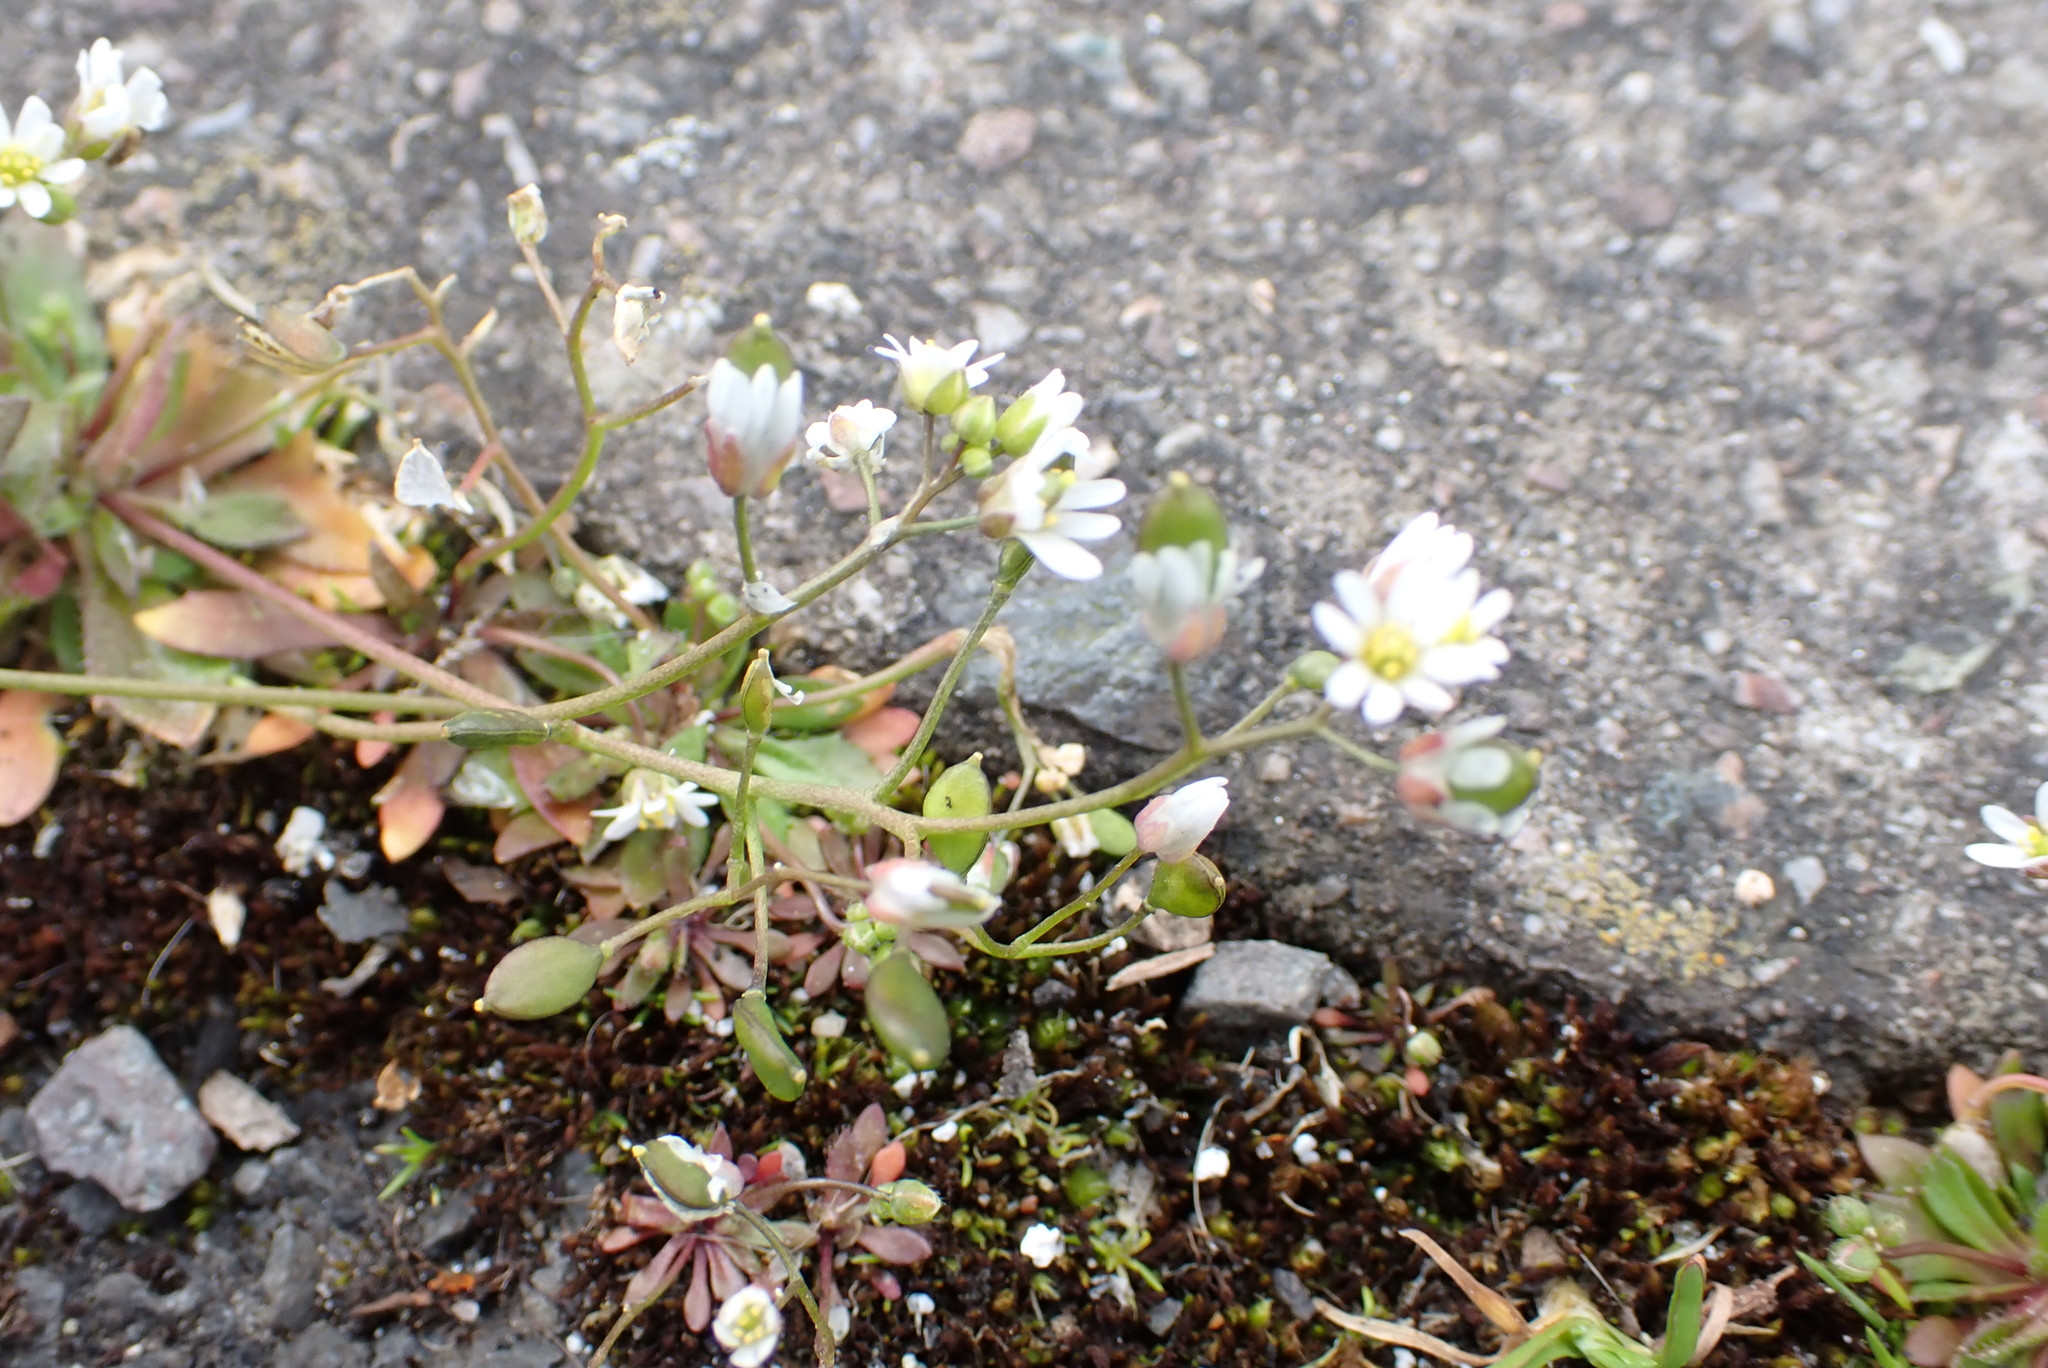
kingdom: Plantae
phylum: Tracheophyta
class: Magnoliopsida
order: Brassicales
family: Brassicaceae
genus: Draba
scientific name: Draba verna
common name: Spring draba
